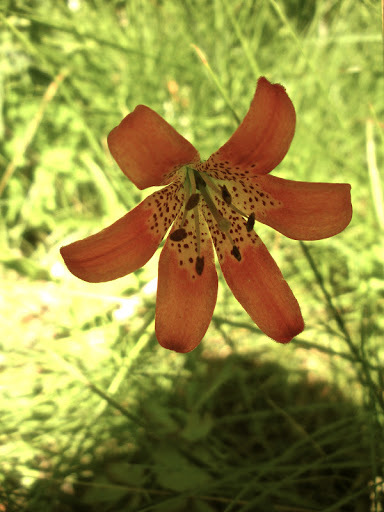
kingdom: Plantae
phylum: Tracheophyta
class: Liliopsida
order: Liliales
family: Liliaceae
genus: Lilium
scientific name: Lilium parvum
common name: Alpine lily
